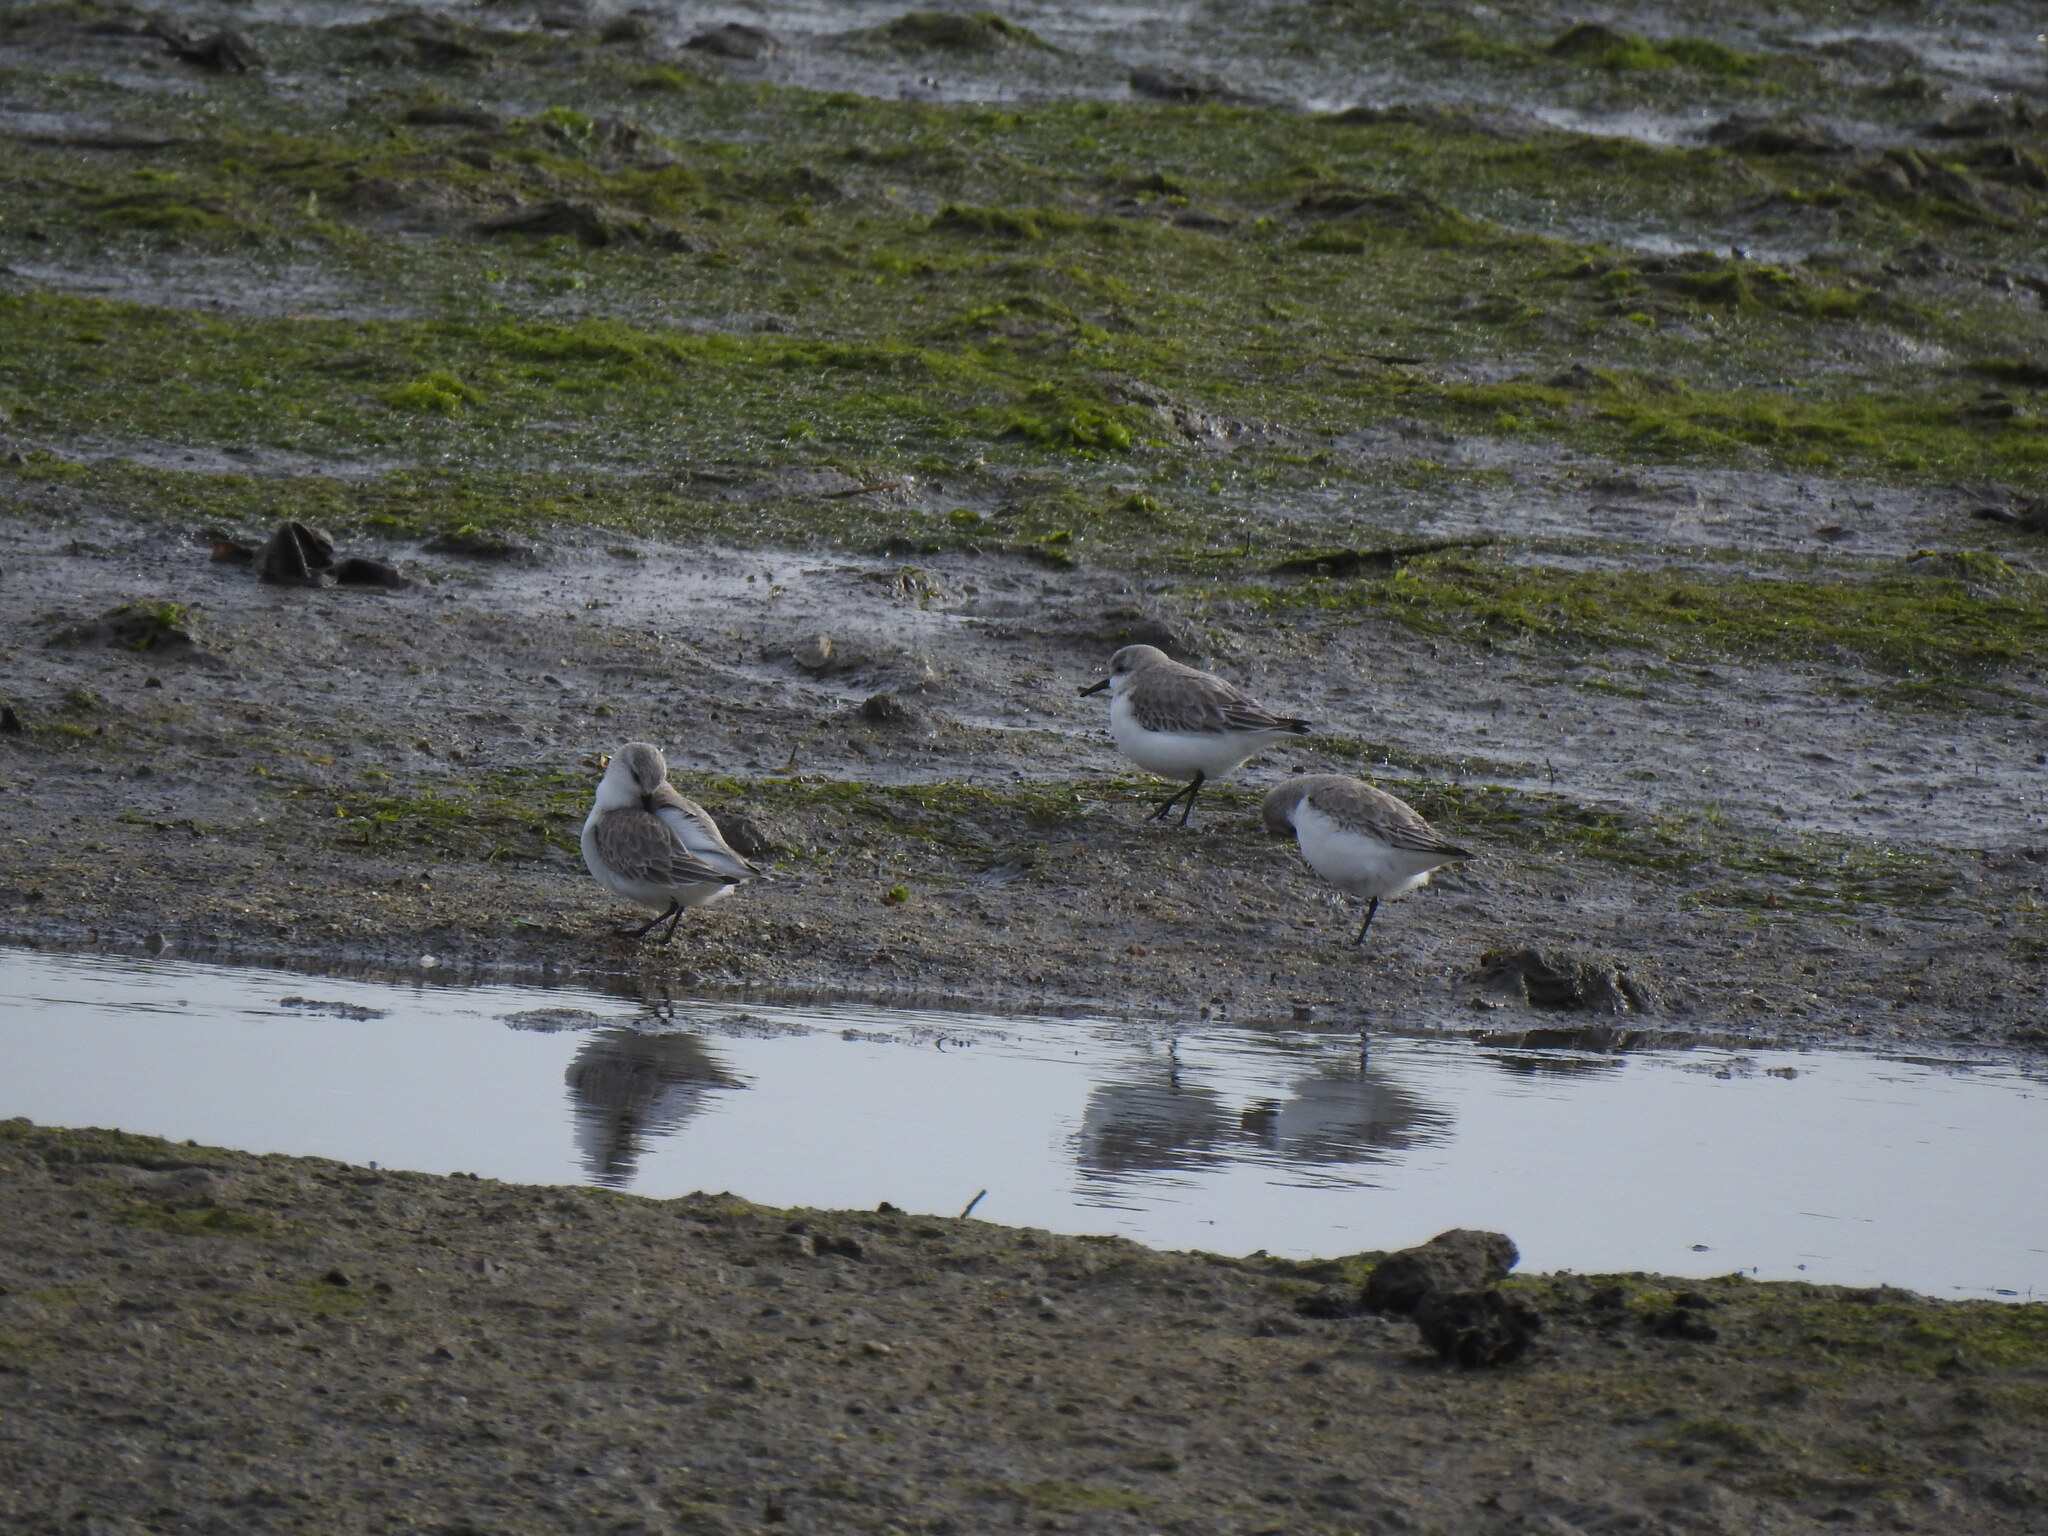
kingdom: Animalia
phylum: Chordata
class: Aves
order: Charadriiformes
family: Scolopacidae
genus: Calidris
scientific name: Calidris alba
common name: Sanderling
